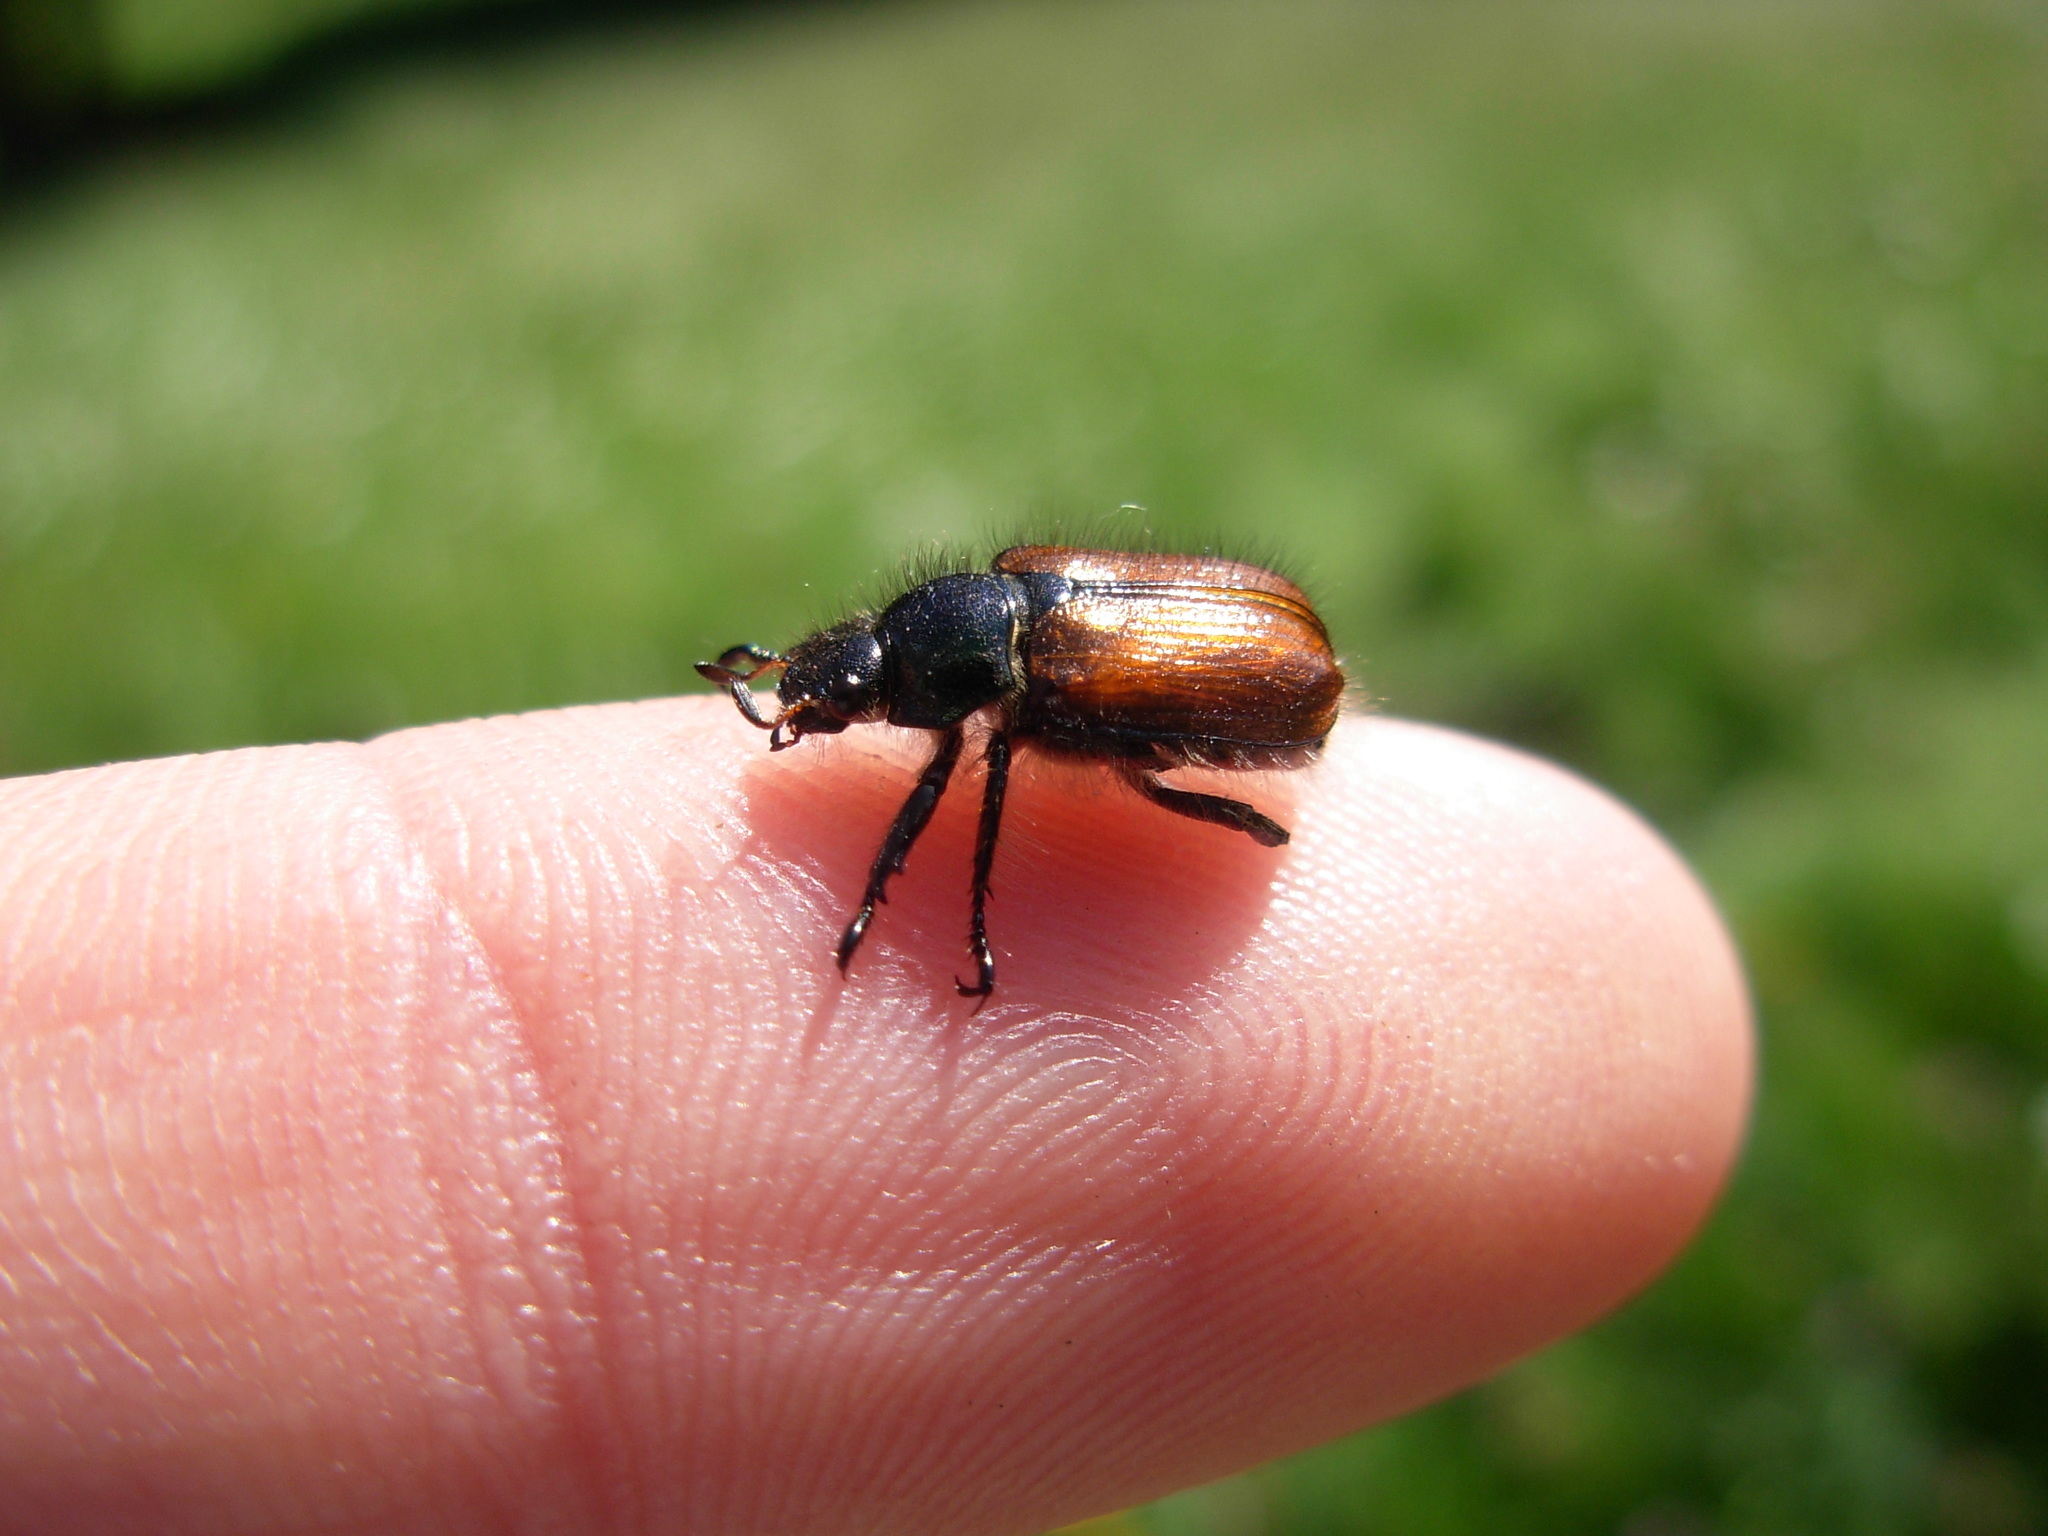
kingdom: Animalia
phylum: Arthropoda
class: Insecta
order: Coleoptera
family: Scarabaeidae
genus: Phyllopertha
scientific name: Phyllopertha horticola
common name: Garden chafer
